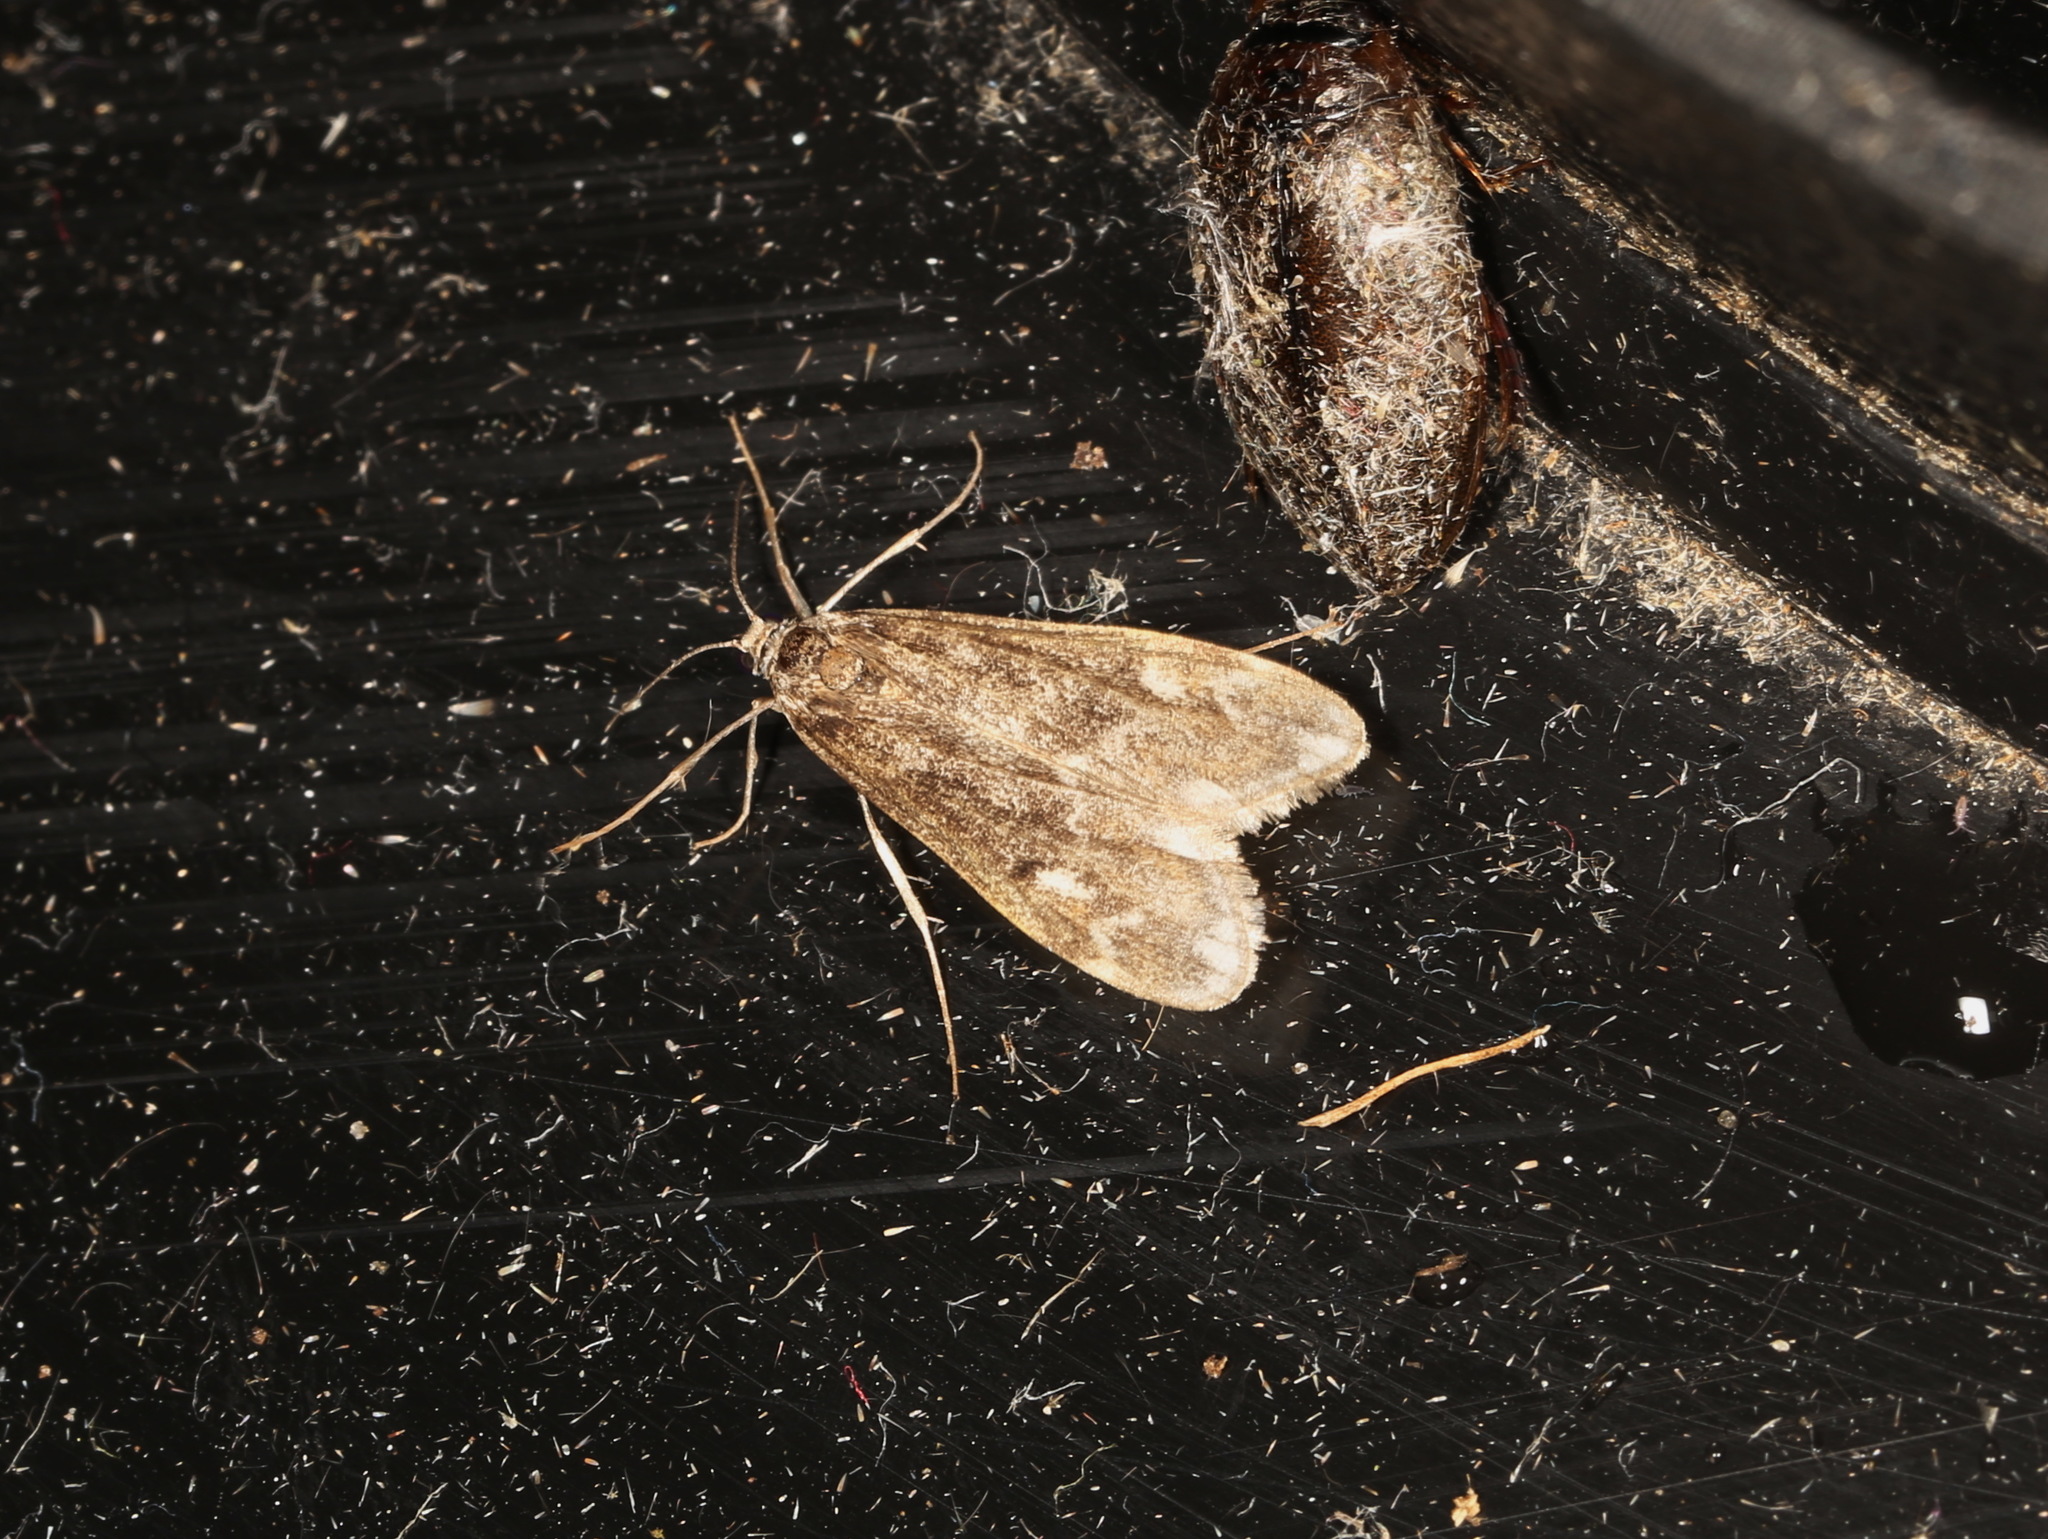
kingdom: Animalia
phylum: Arthropoda
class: Insecta
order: Lepidoptera
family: Crambidae
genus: Hygraula
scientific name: Hygraula nitens
